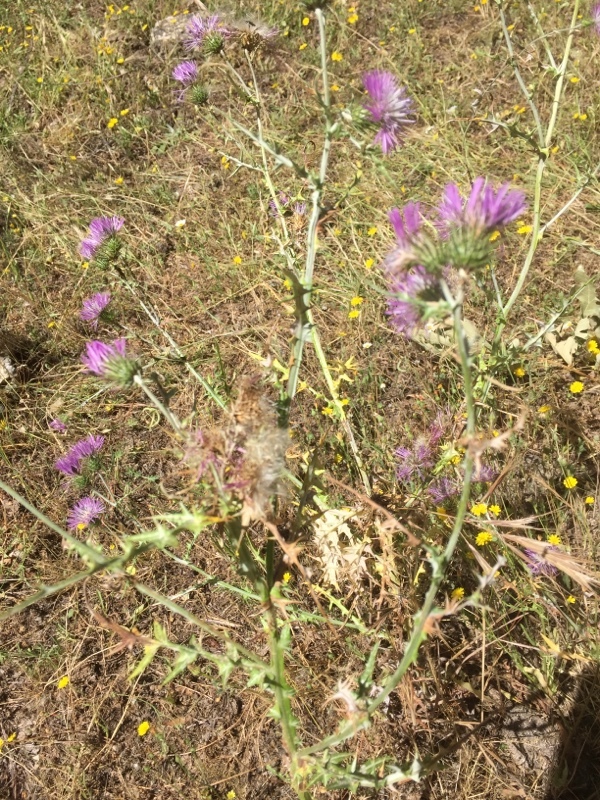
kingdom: Plantae
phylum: Tracheophyta
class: Magnoliopsida
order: Asterales
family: Asteraceae
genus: Galactites
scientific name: Galactites tomentosa
